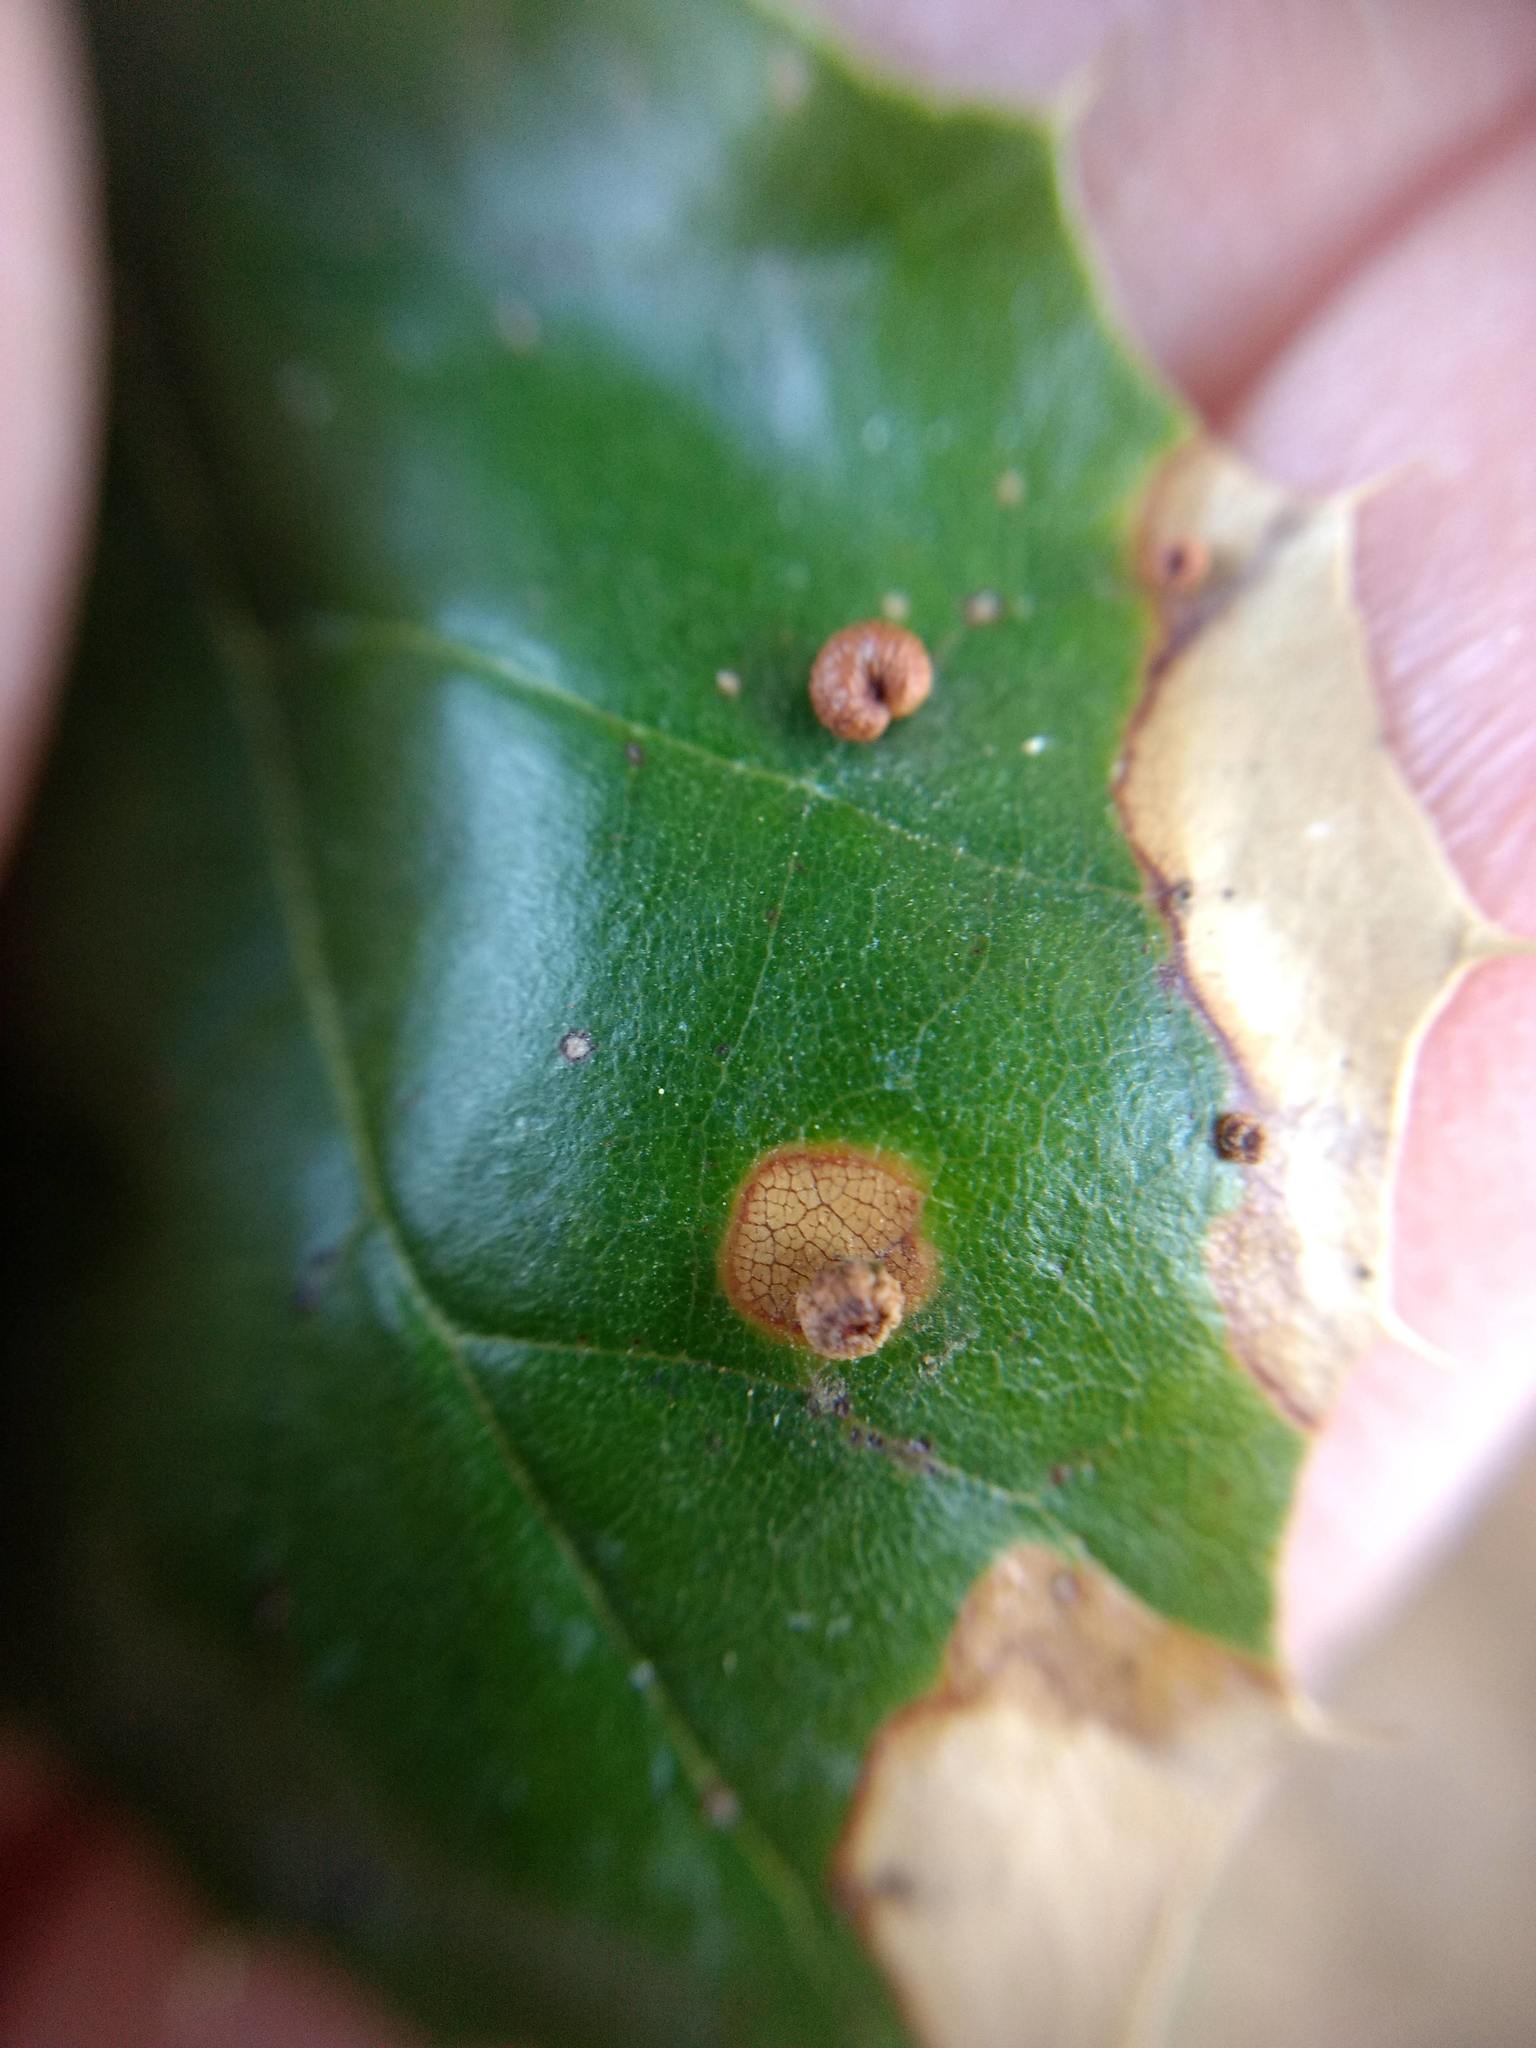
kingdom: Animalia
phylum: Arthropoda
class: Insecta
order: Hymenoptera
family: Cynipidae
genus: Dryocosmus
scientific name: Dryocosmus
